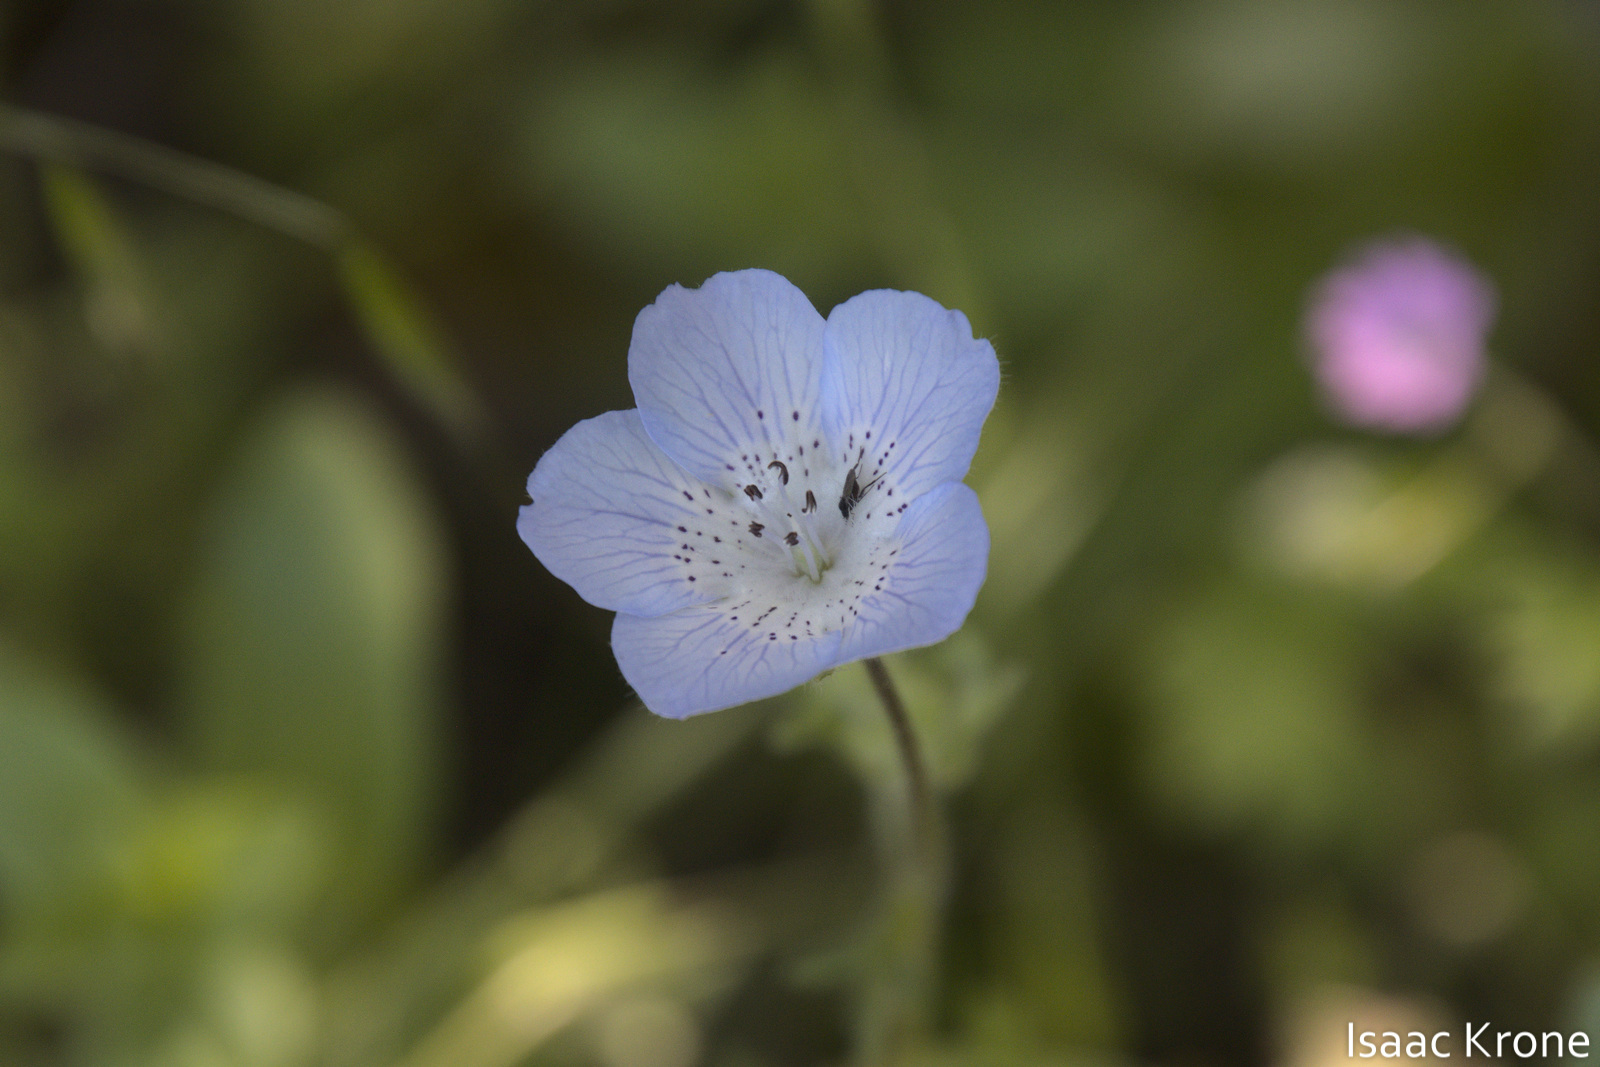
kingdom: Plantae
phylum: Tracheophyta
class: Magnoliopsida
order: Boraginales
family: Hydrophyllaceae
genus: Nemophila
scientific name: Nemophila menziesii
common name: Baby's-blue-eyes
